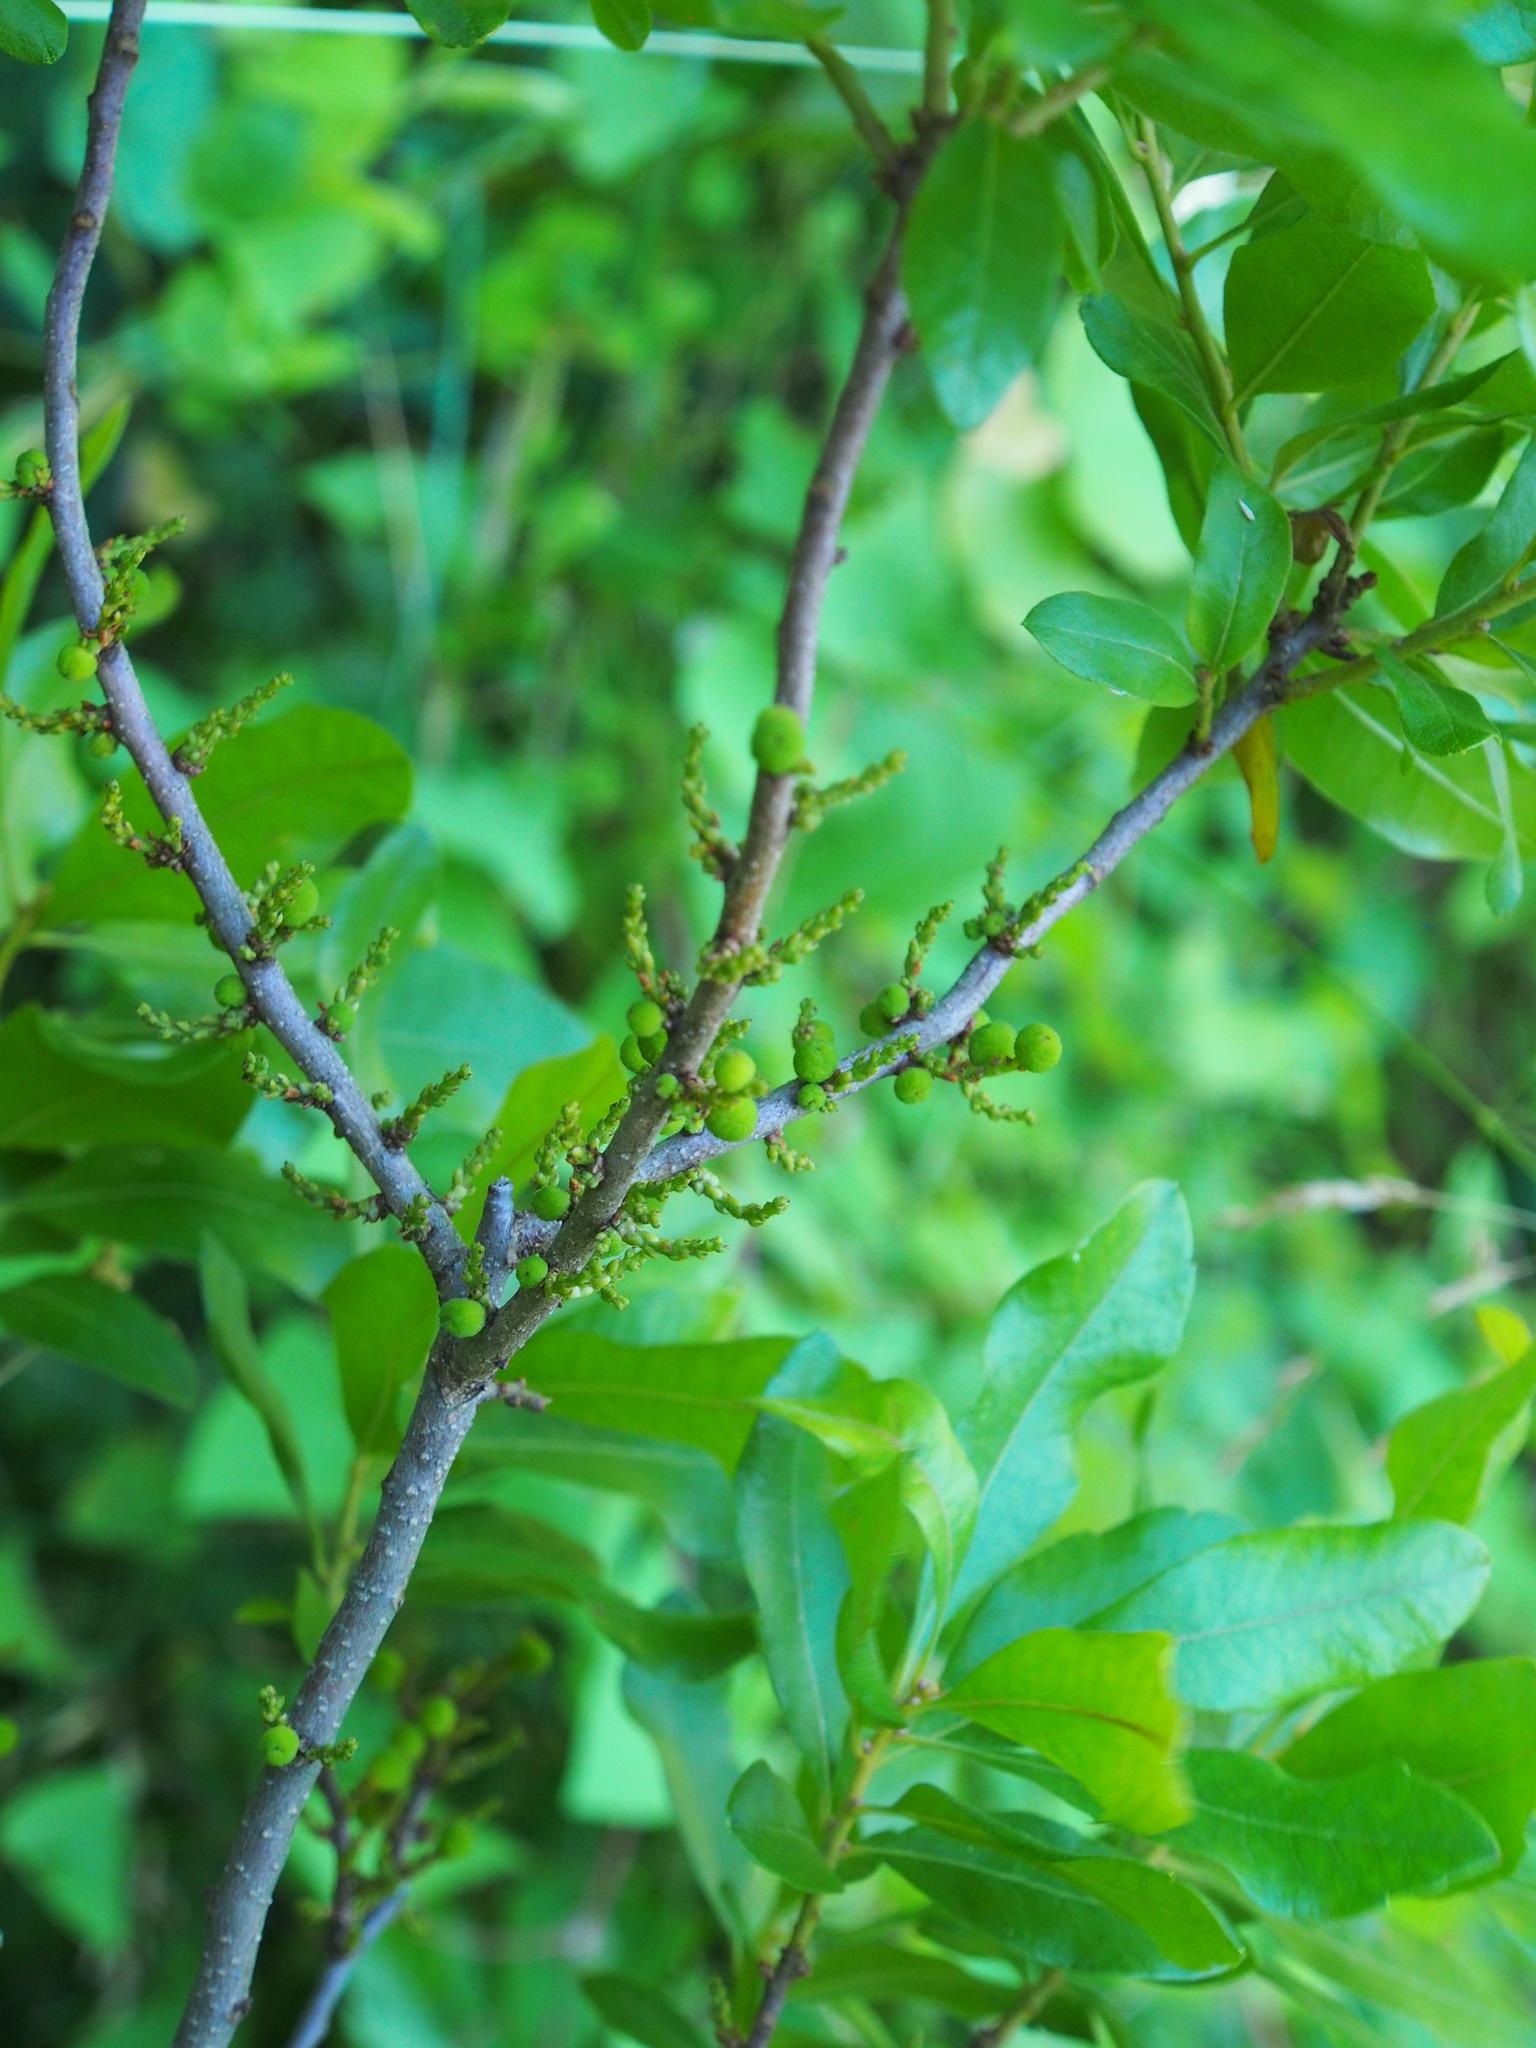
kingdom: Plantae
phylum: Tracheophyta
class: Magnoliopsida
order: Fagales
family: Myricaceae
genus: Morella
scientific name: Morella pensylvanica
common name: Northern bayberry
